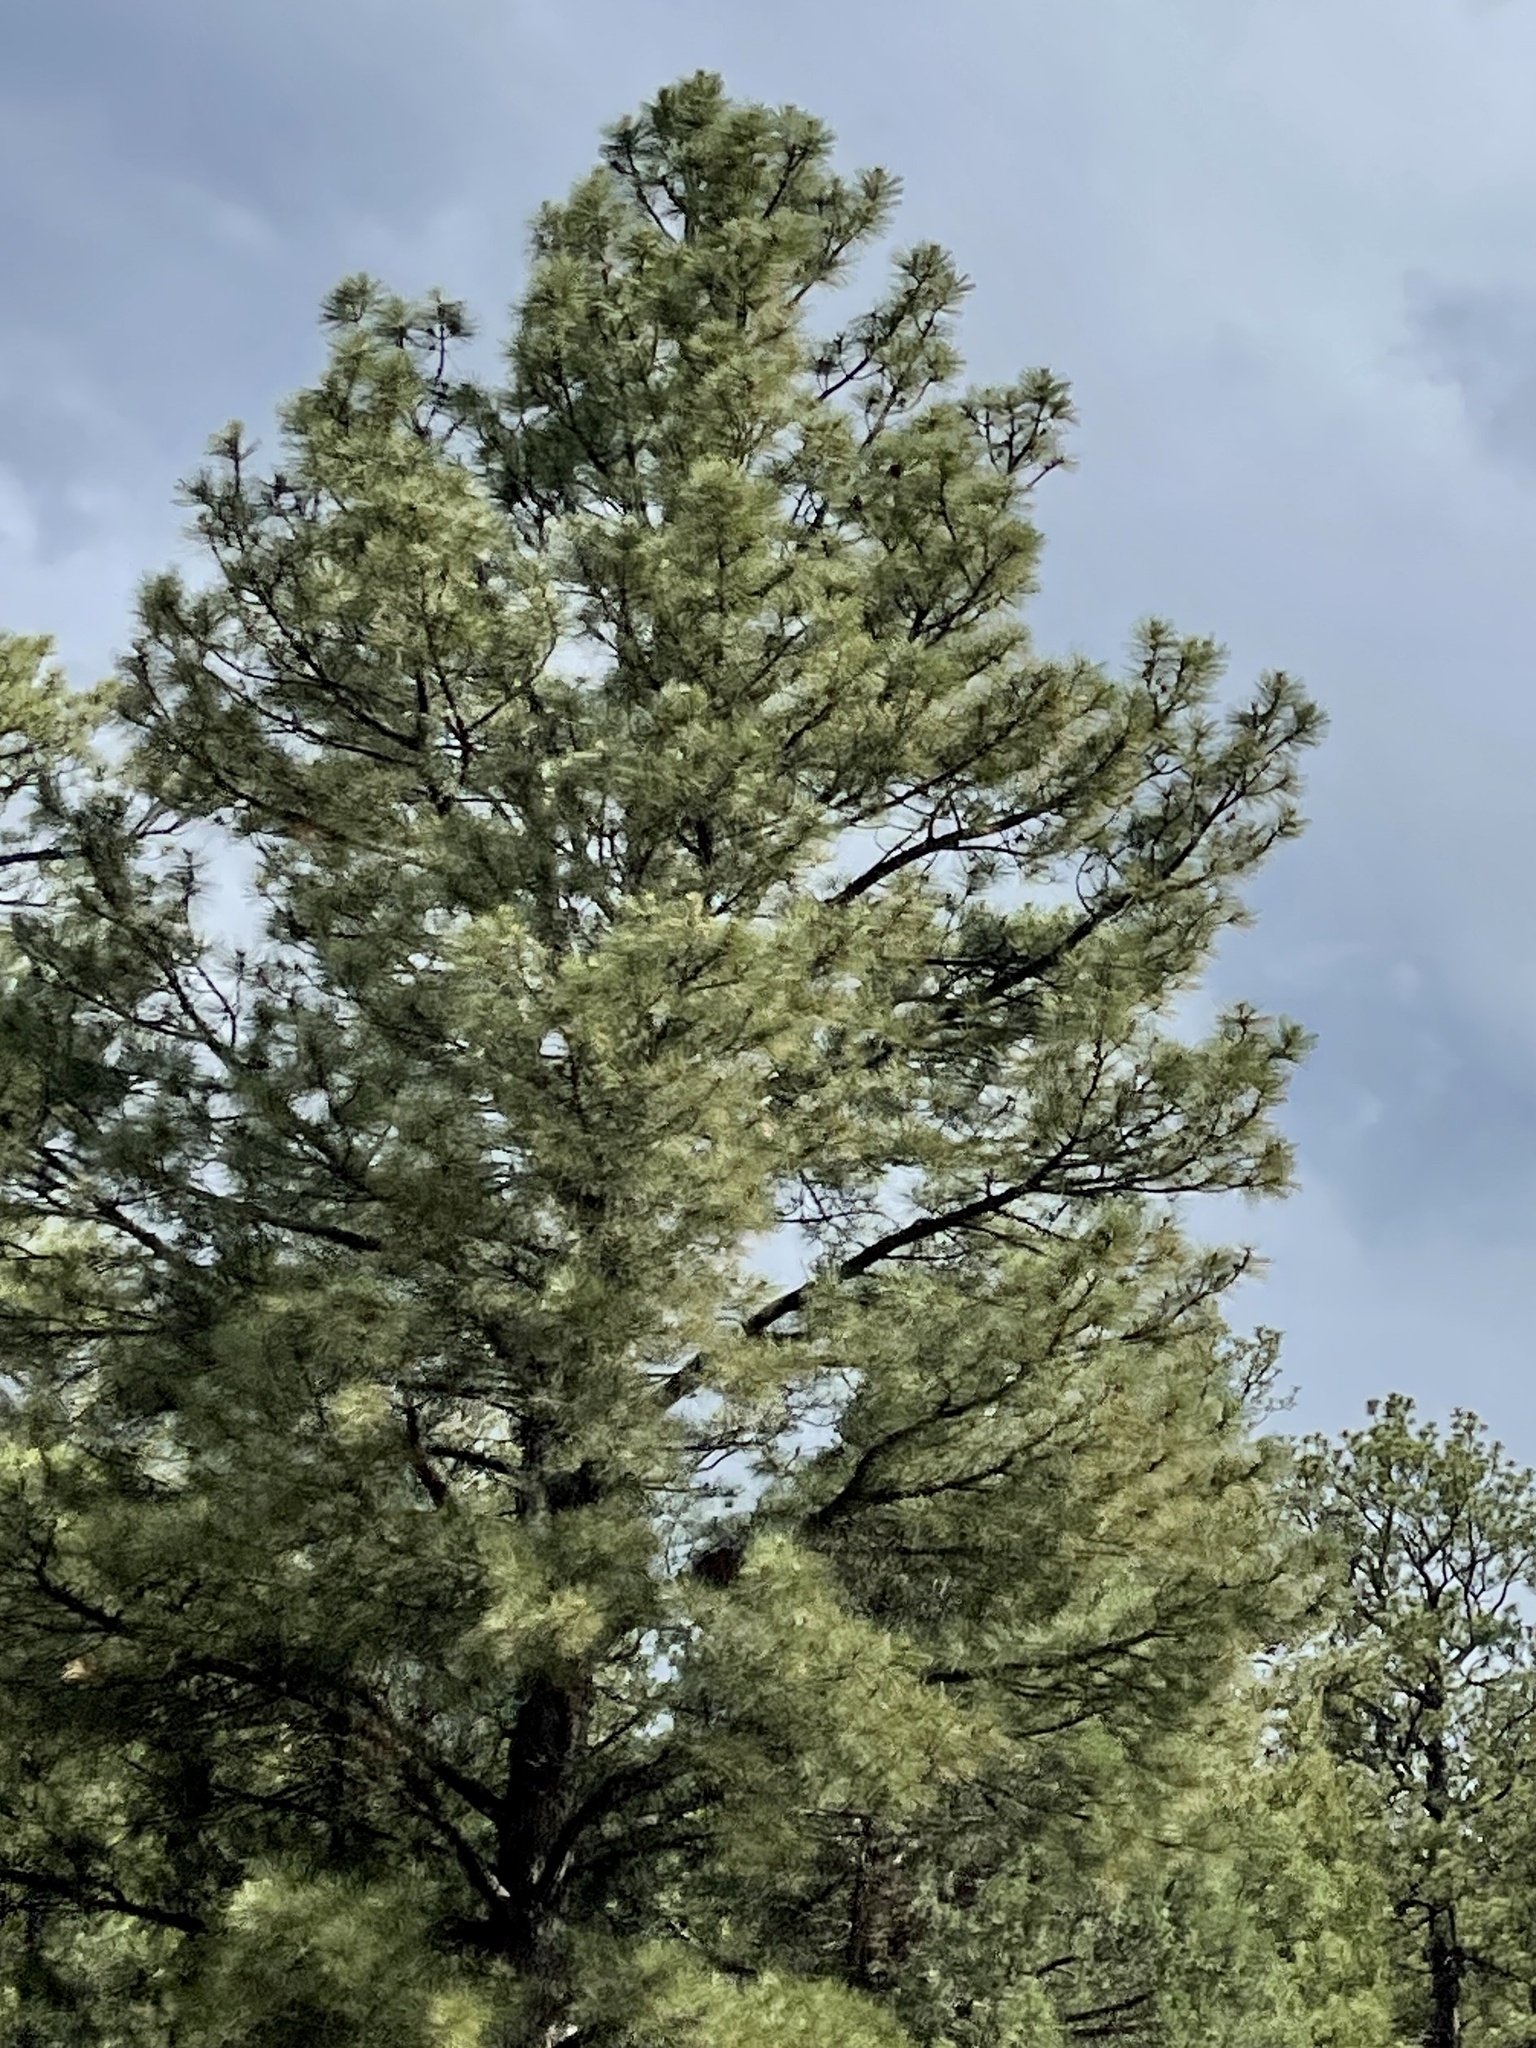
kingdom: Plantae
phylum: Tracheophyta
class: Pinopsida
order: Pinales
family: Pinaceae
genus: Pinus
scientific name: Pinus ponderosa
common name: Western yellow-pine
